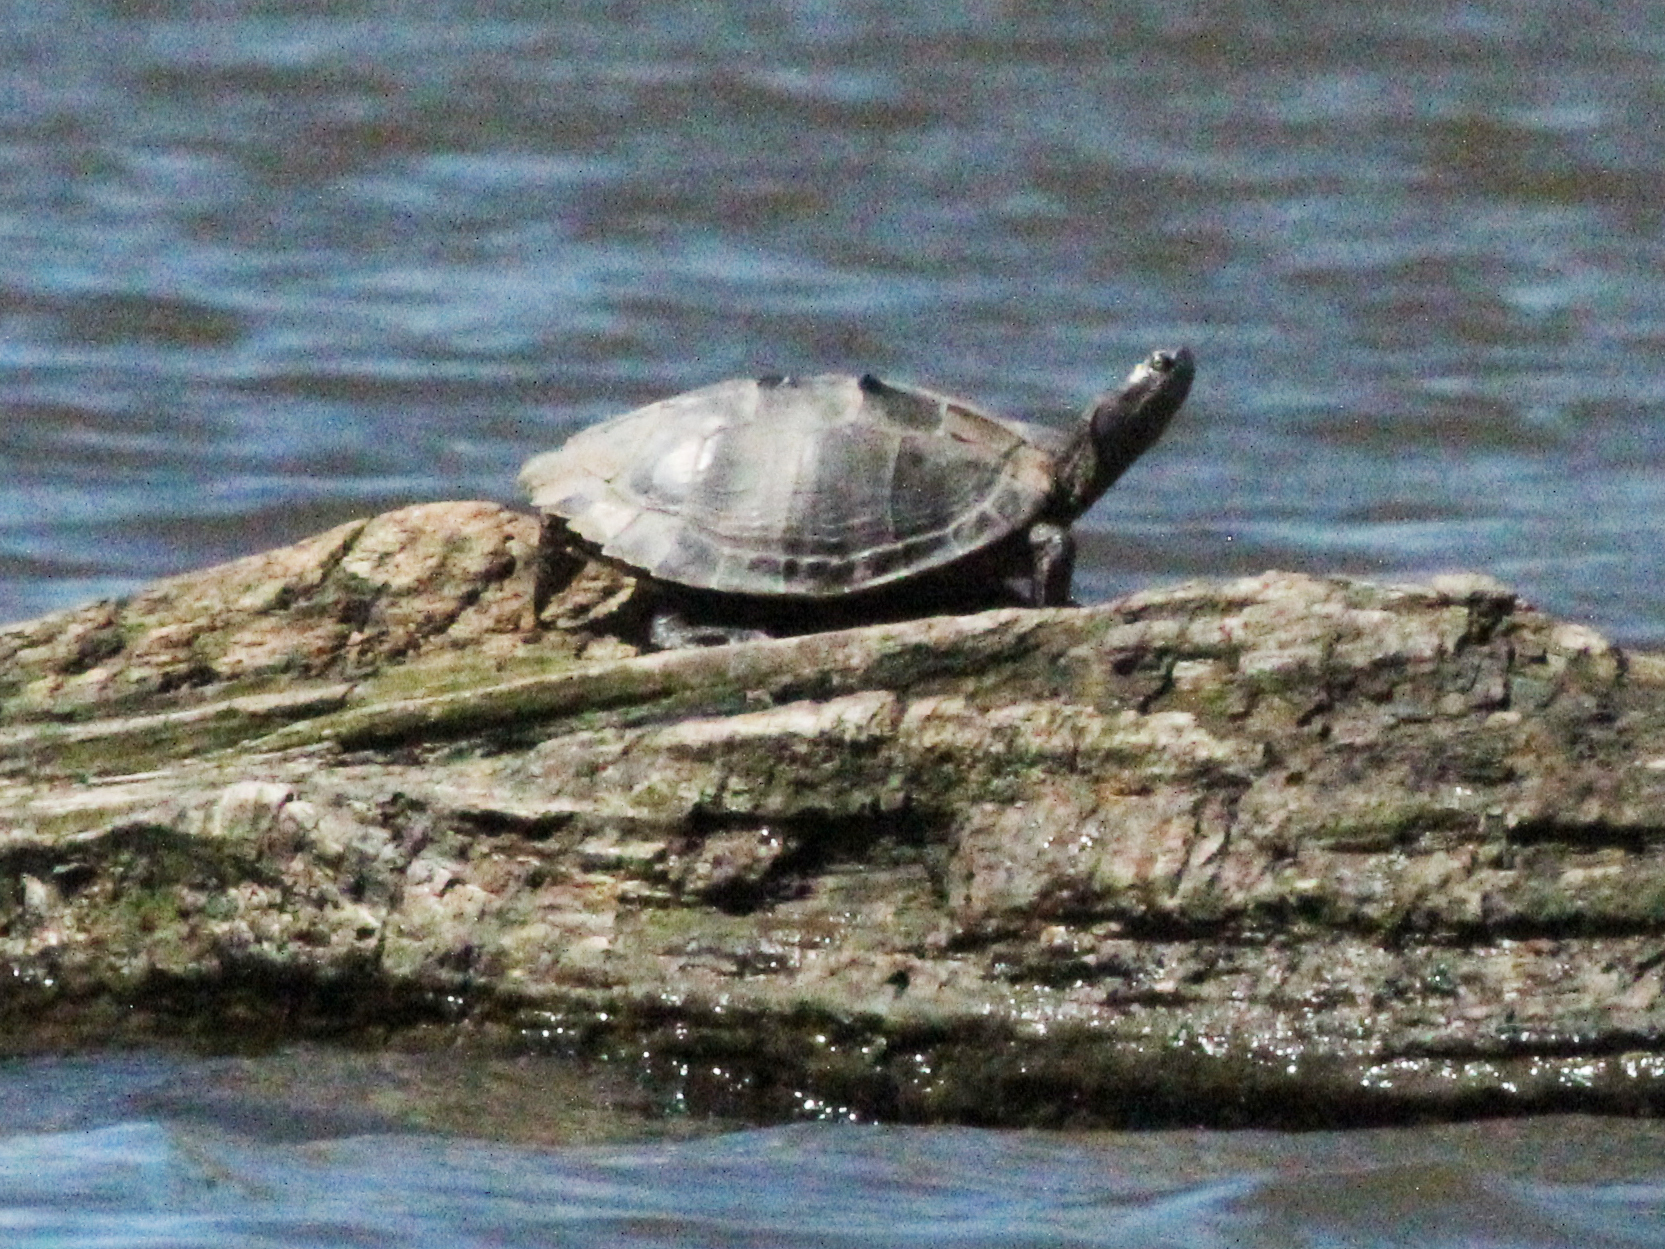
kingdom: Animalia
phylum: Chordata
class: Testudines
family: Emydidae
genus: Graptemys
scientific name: Graptemys geographica
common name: Common map turtle
